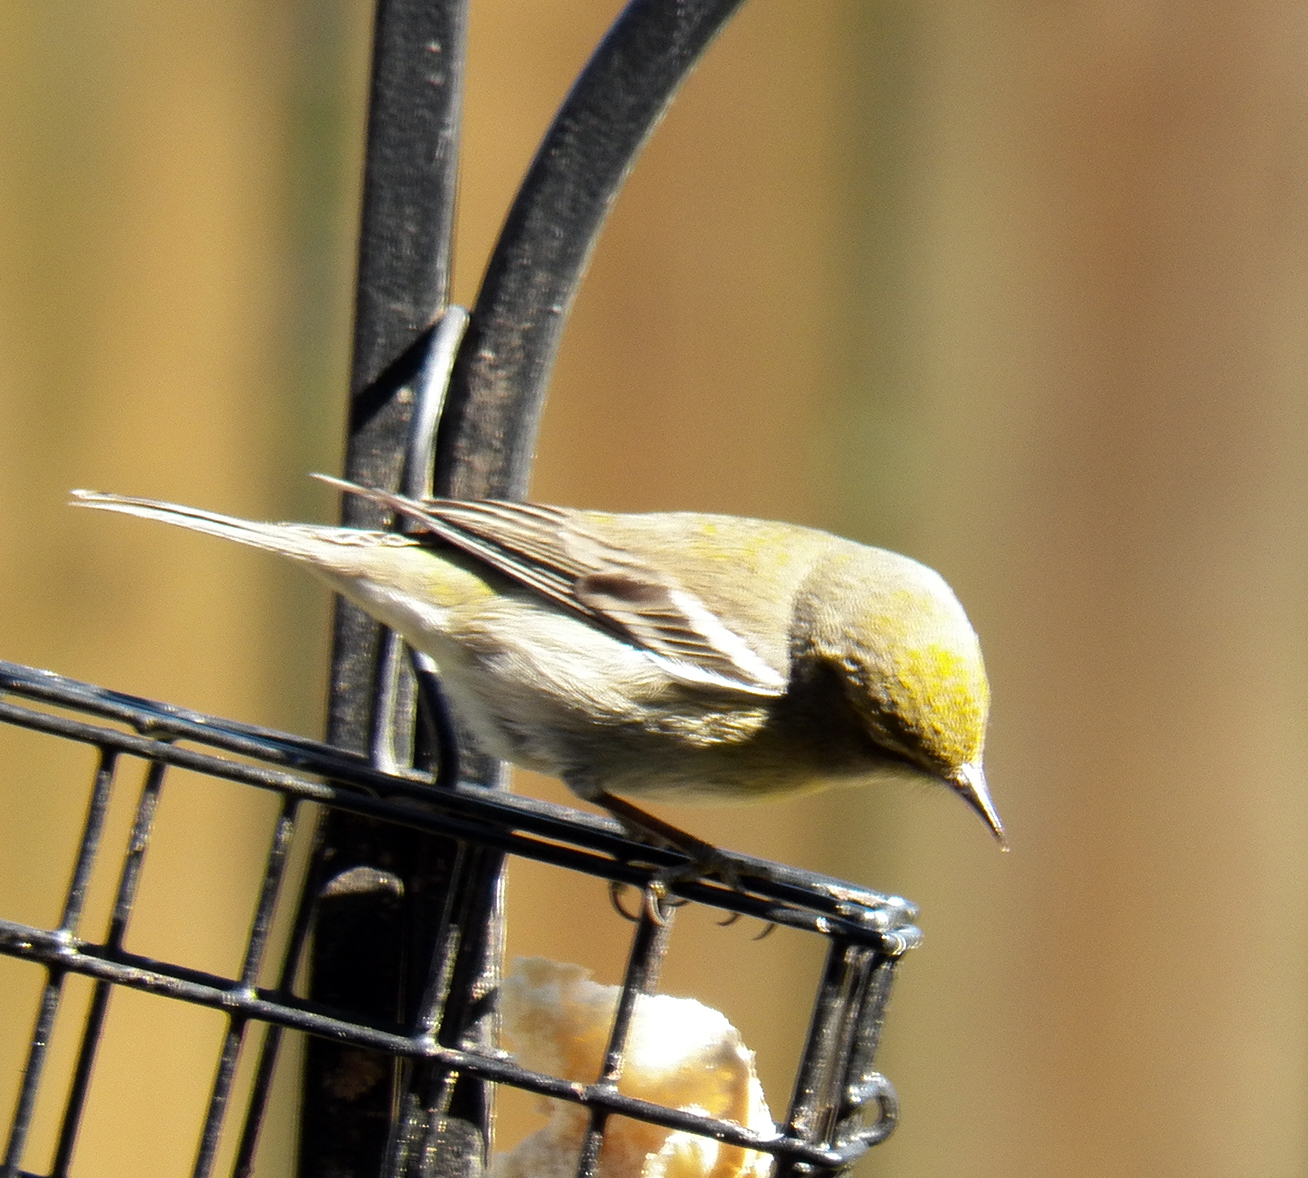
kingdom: Animalia
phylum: Chordata
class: Aves
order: Passeriformes
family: Parulidae
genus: Setophaga
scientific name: Setophaga pinus
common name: Pine warbler
